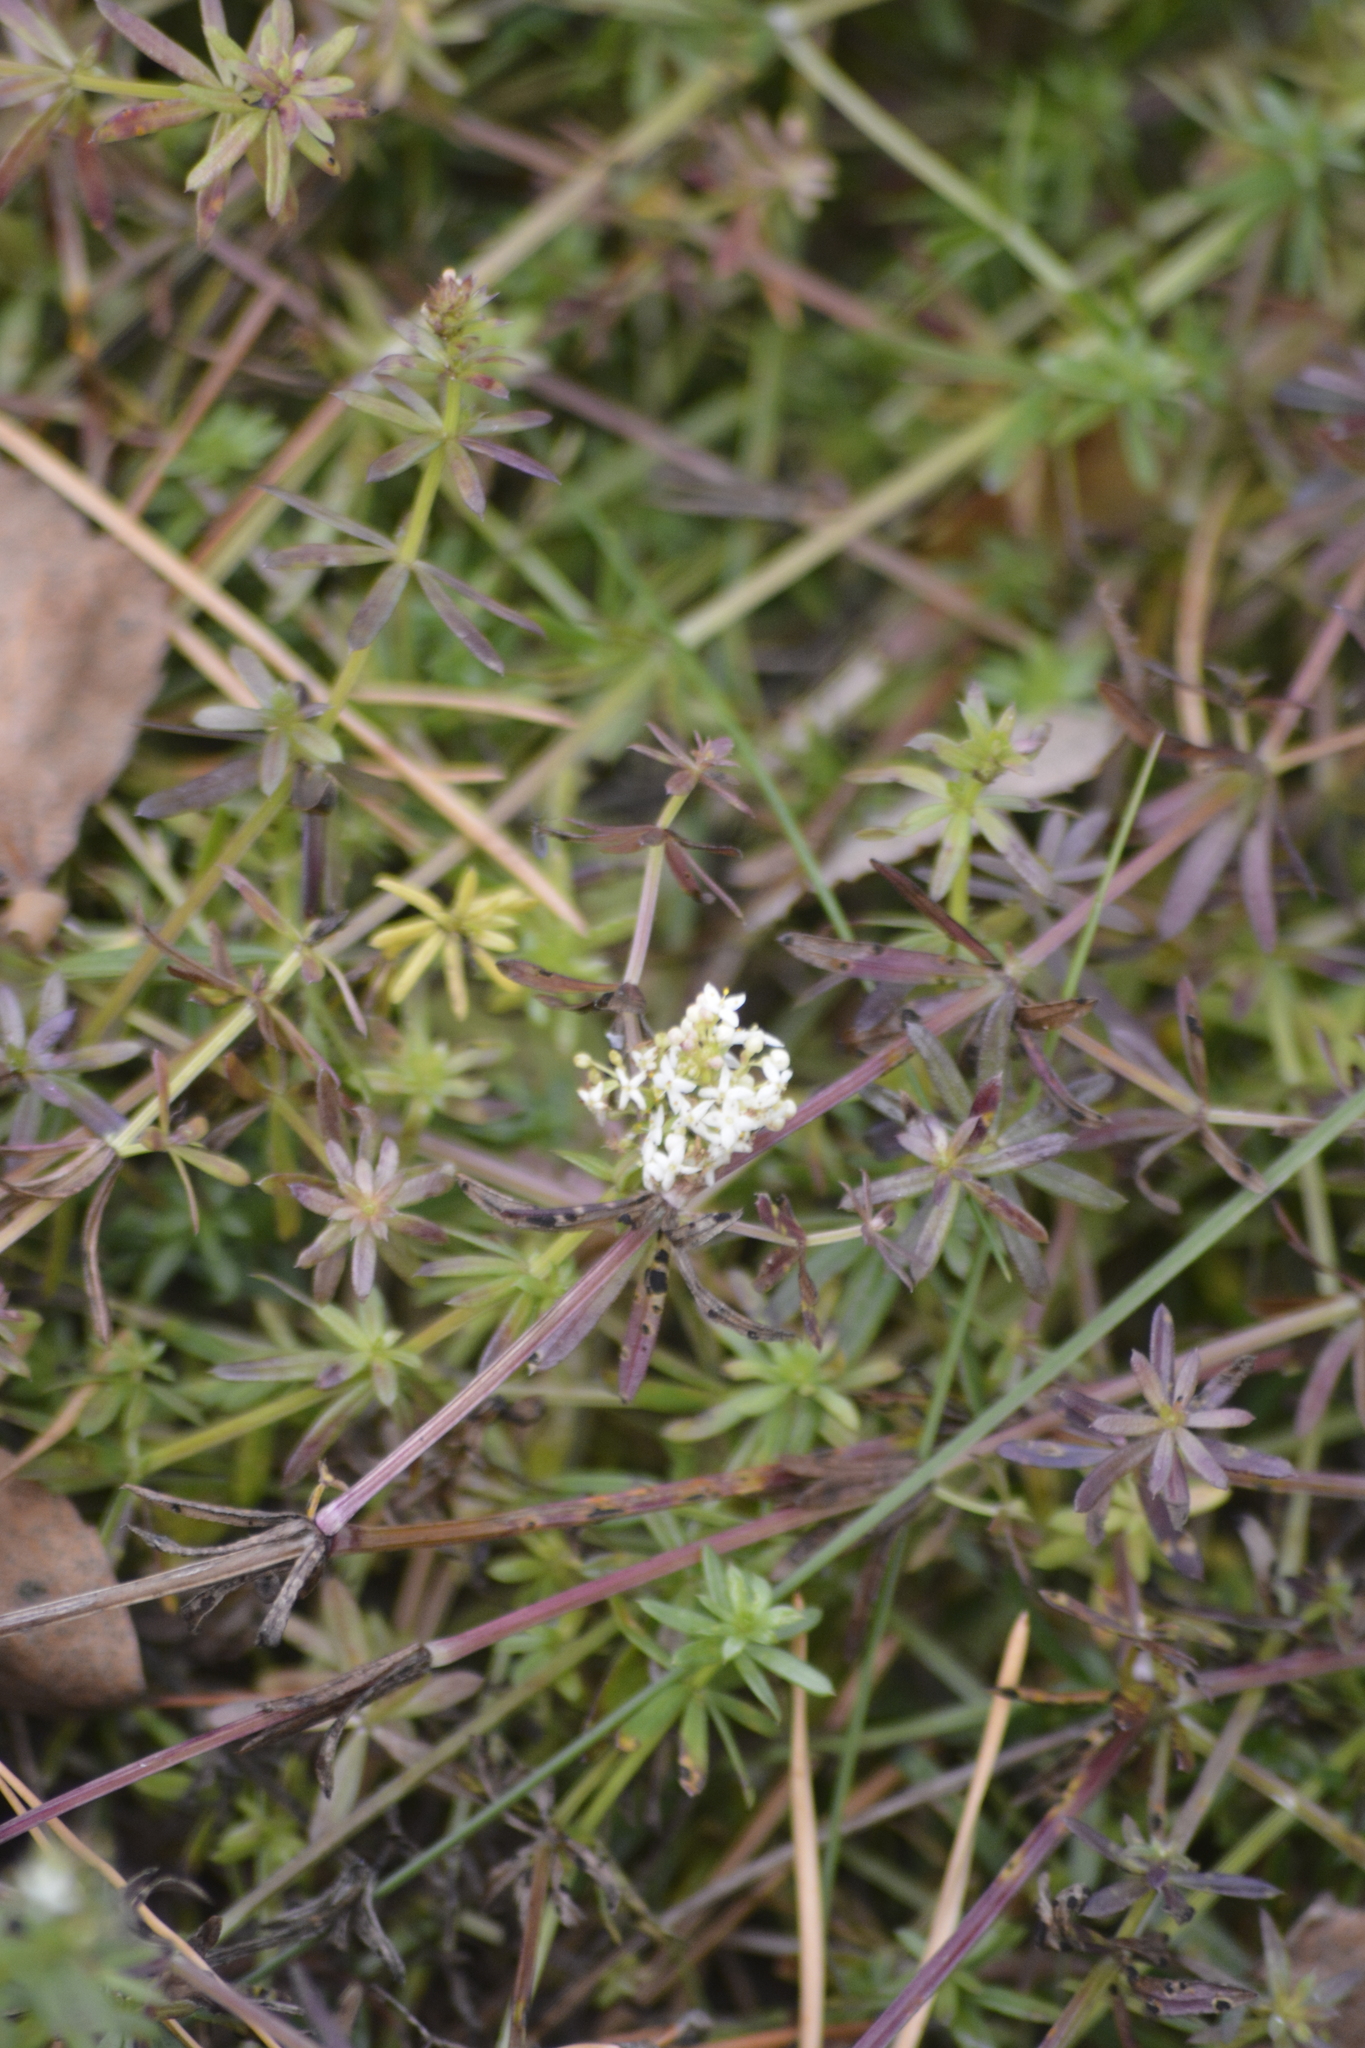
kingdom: Plantae
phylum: Tracheophyta
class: Magnoliopsida
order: Gentianales
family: Rubiaceae
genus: Galium
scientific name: Galium mollugo
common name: Hedge bedstraw
